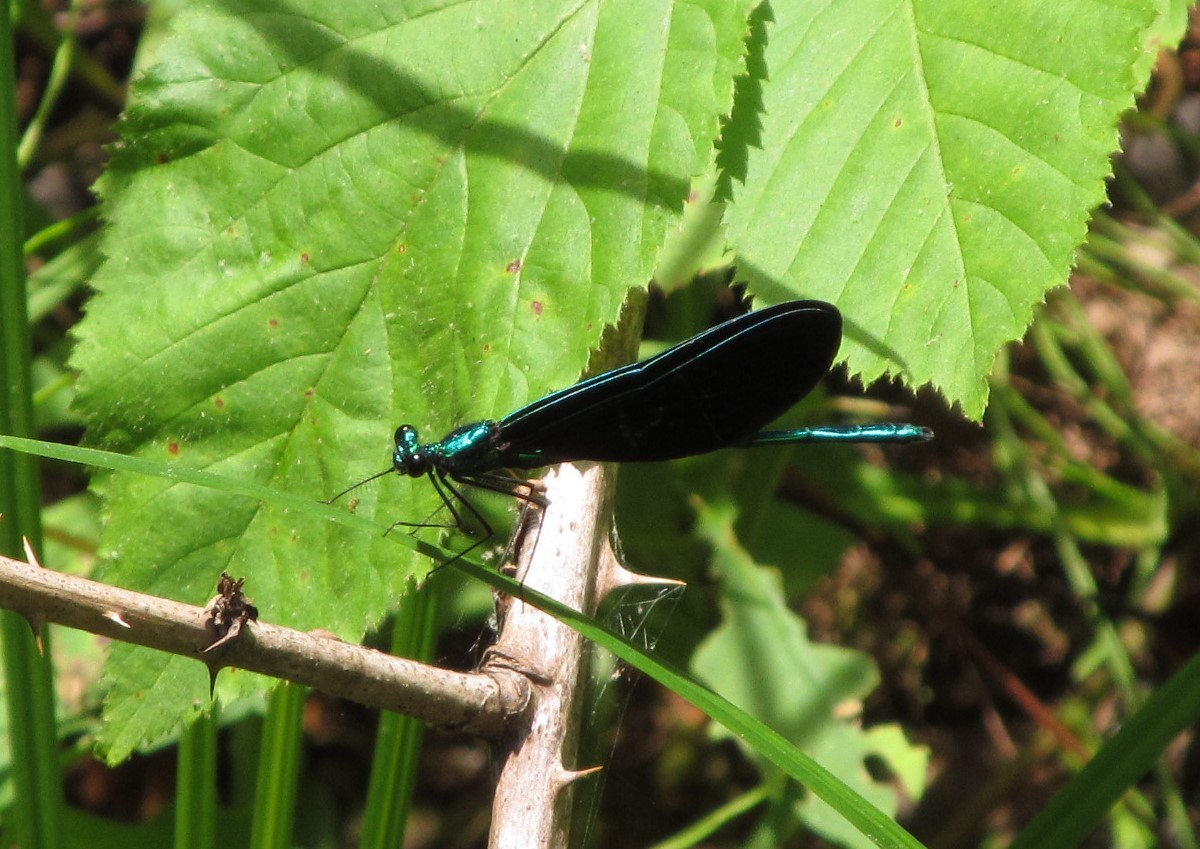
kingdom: Animalia
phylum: Arthropoda
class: Insecta
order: Odonata
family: Calopterygidae
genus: Calopteryx
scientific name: Calopteryx maculata
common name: Ebony jewelwing
